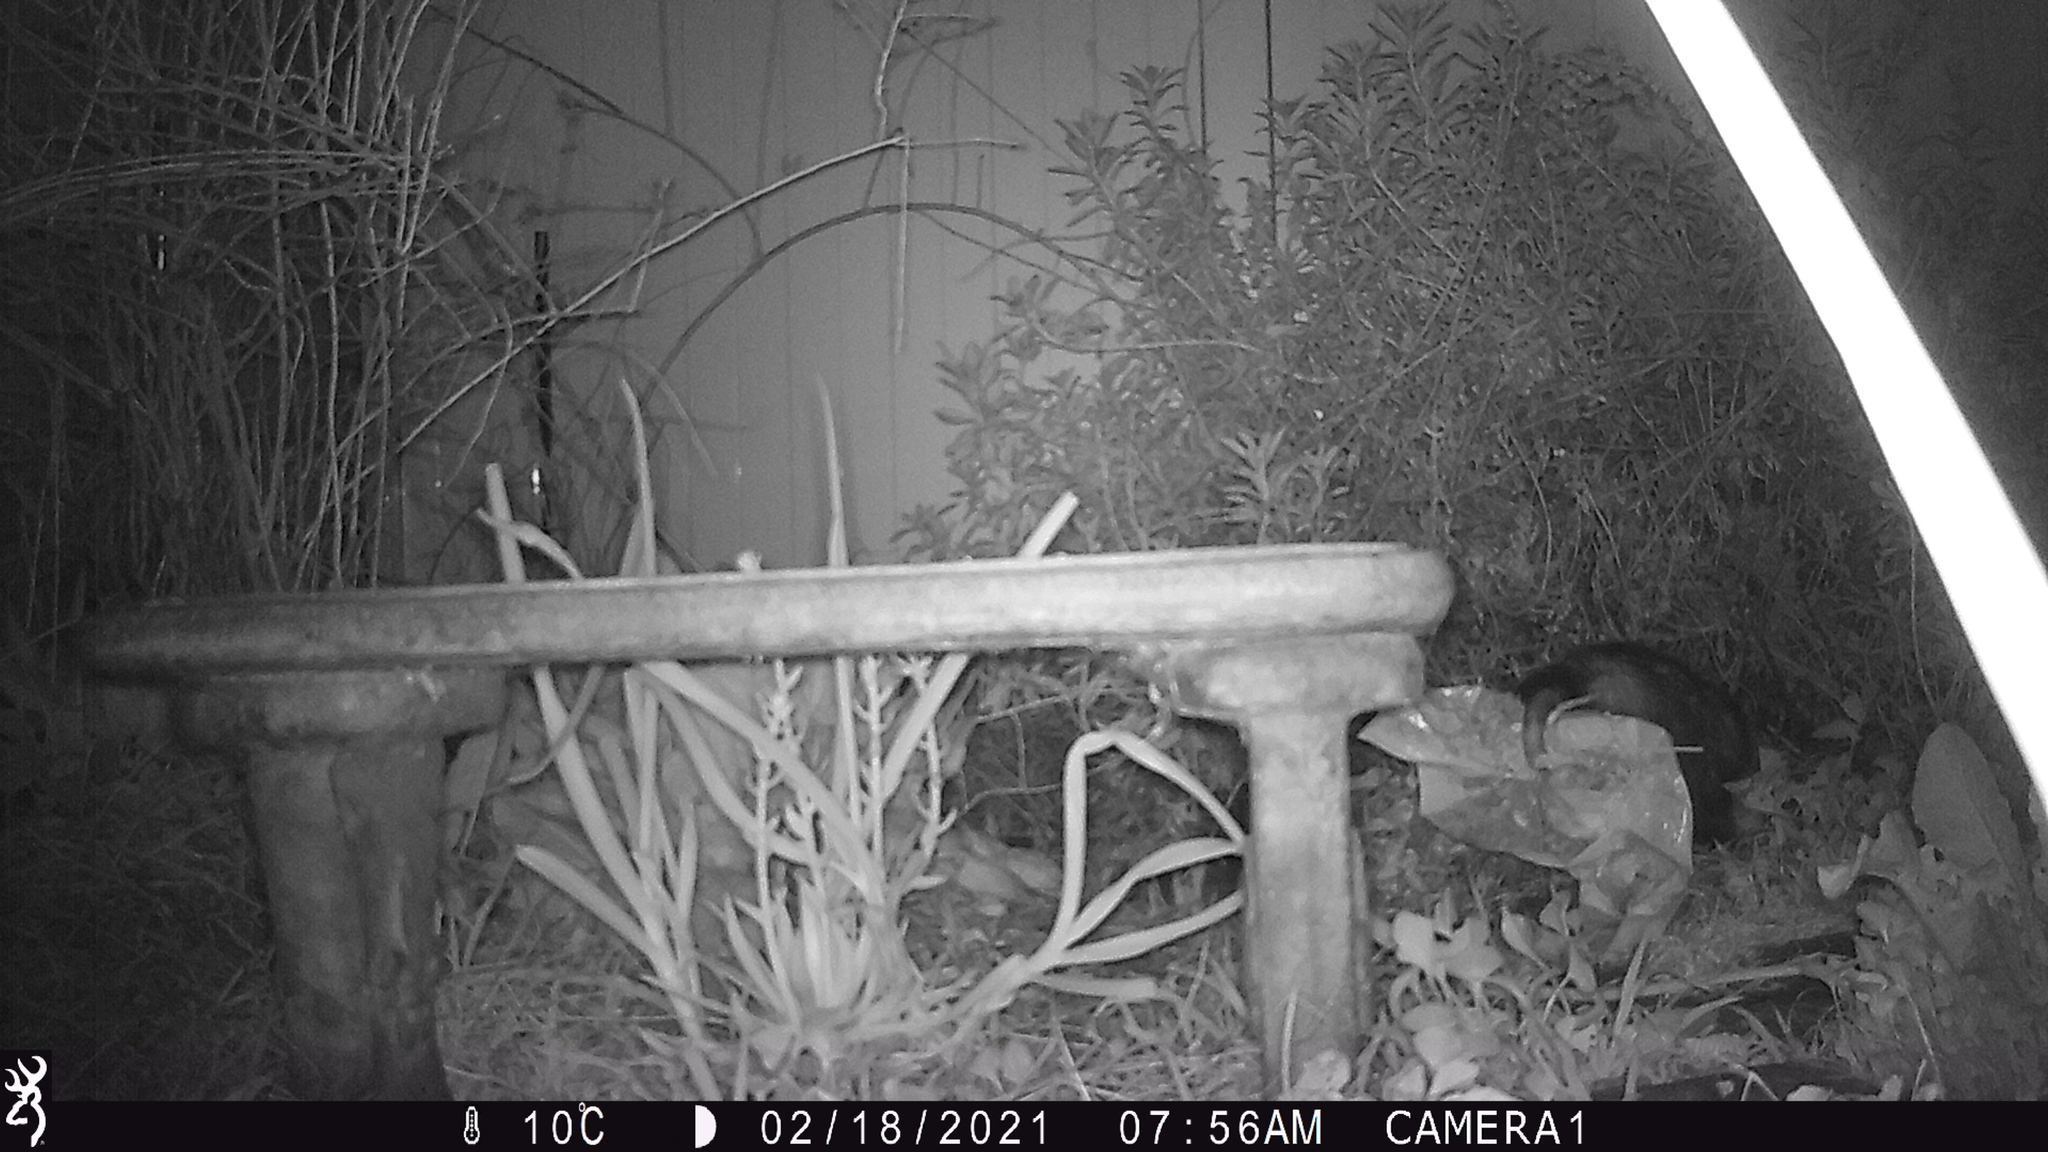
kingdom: Animalia
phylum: Chordata
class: Mammalia
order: Didelphimorphia
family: Didelphidae
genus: Didelphis
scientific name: Didelphis virginiana
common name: Virginia opossum
